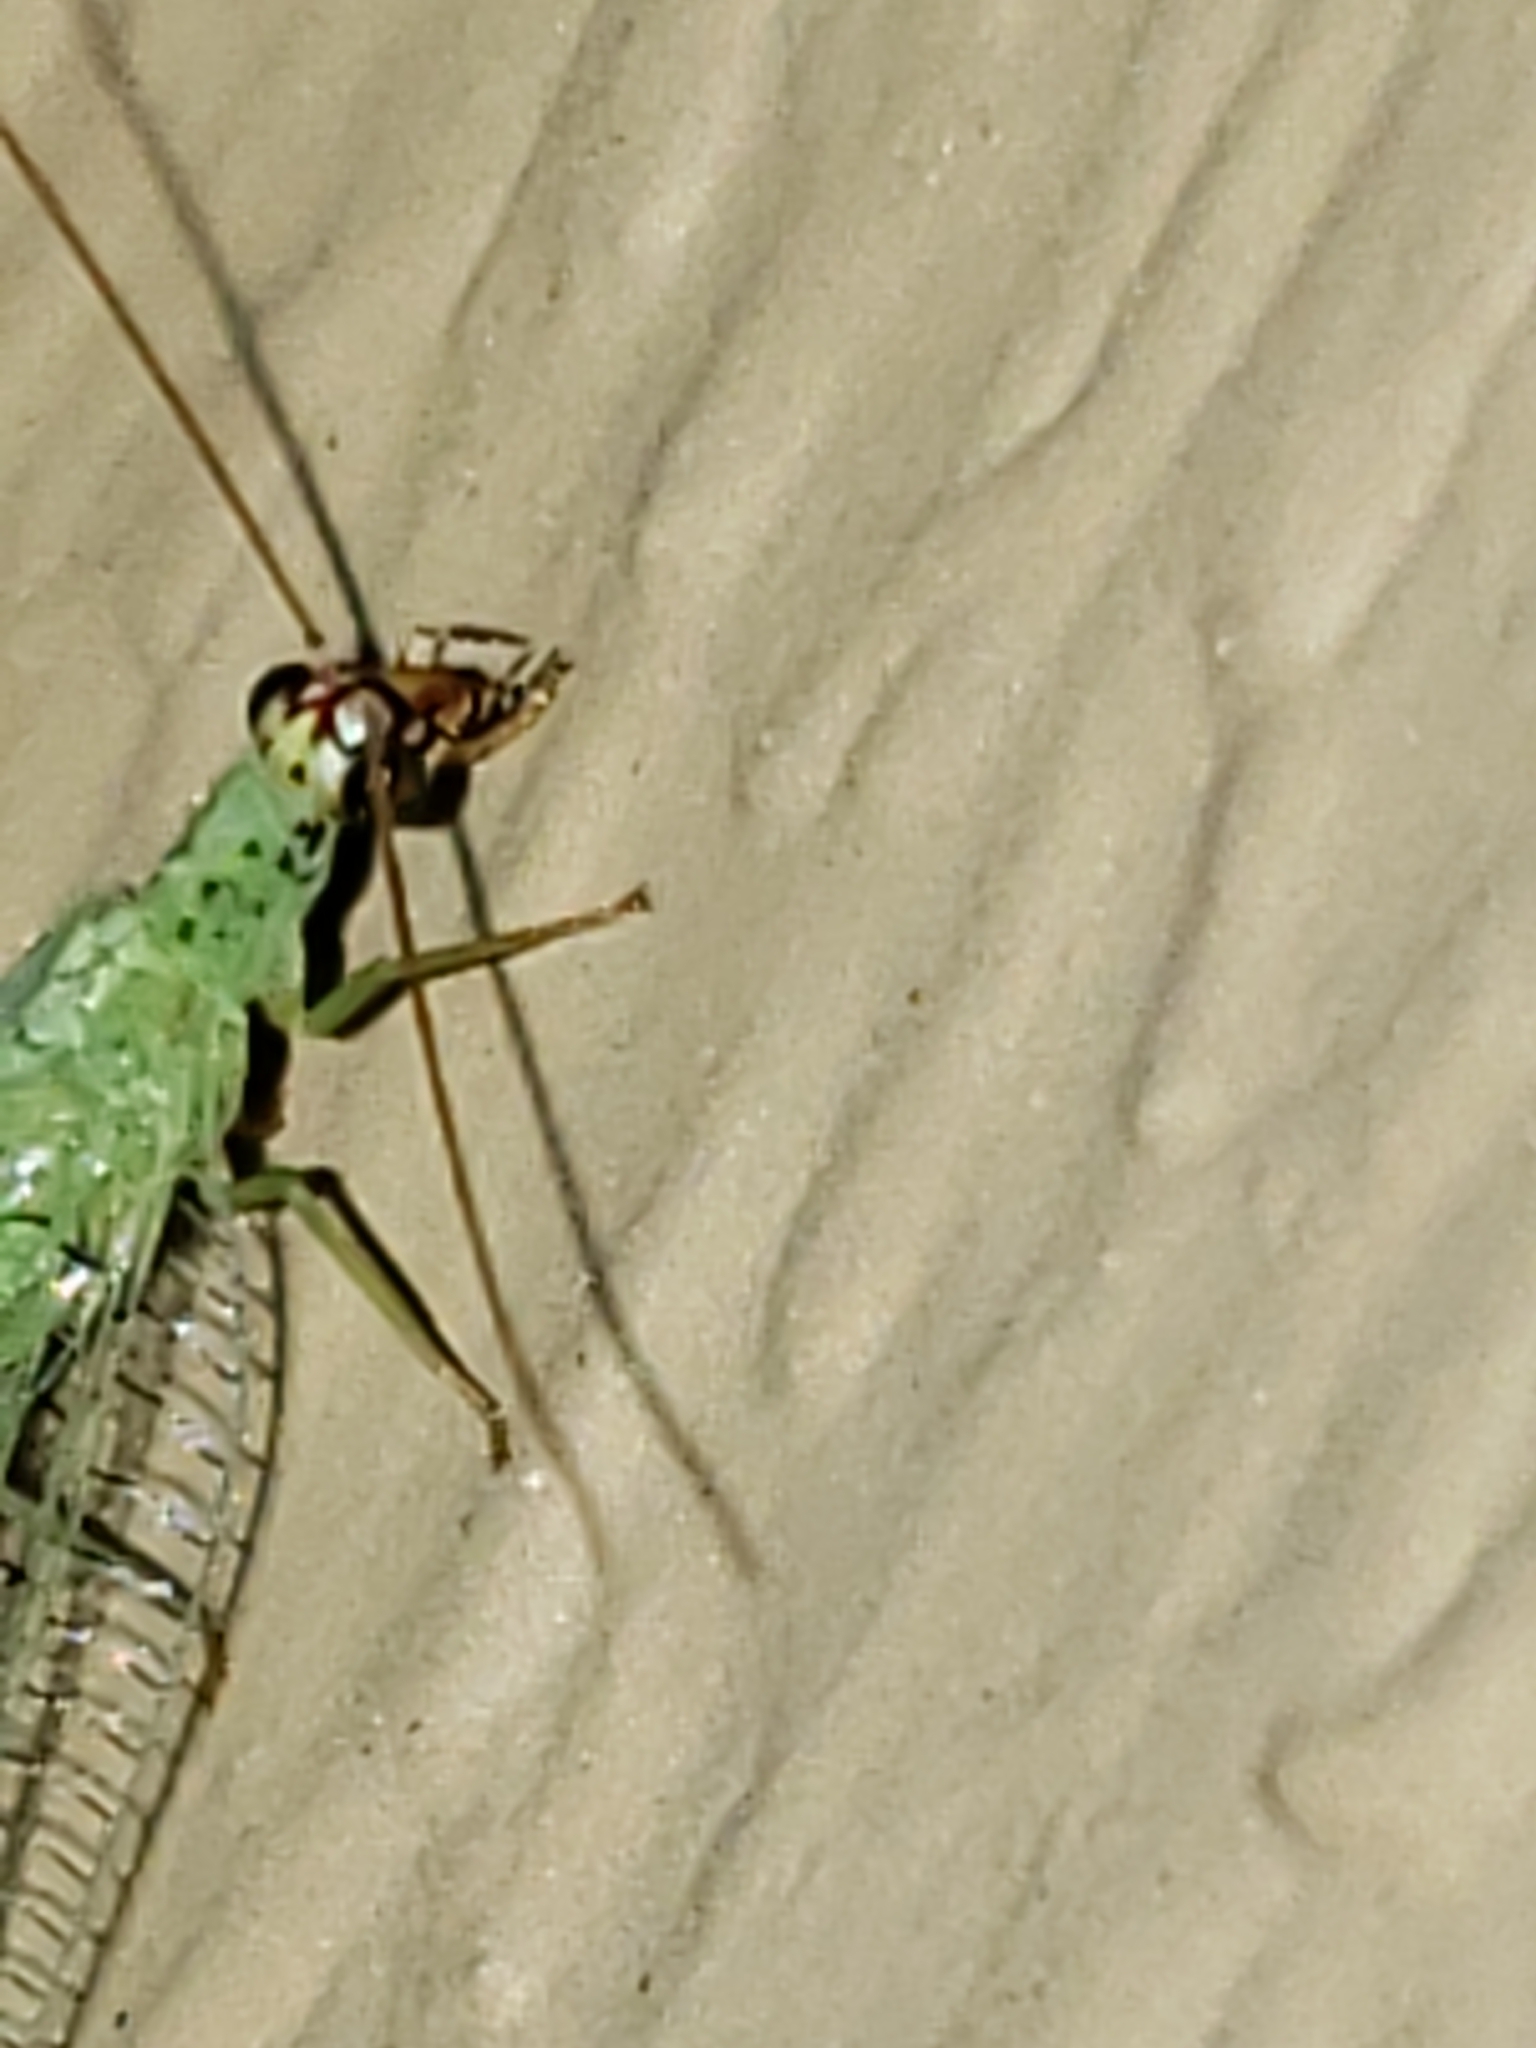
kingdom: Animalia
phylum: Arthropoda
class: Insecta
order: Neuroptera
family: Chrysopidae
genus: Chrysopa
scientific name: Chrysopa oculata
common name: Golden-eyed lacewing
